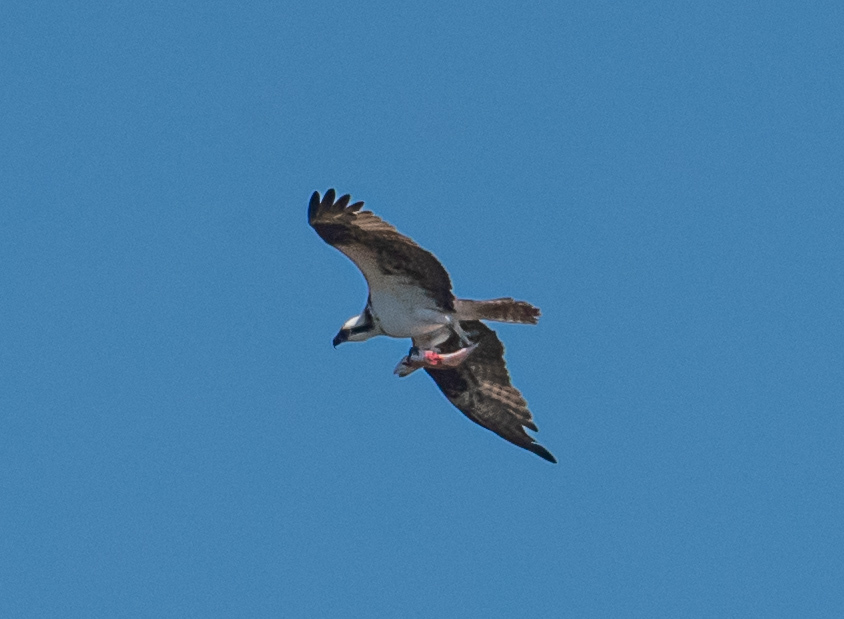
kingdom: Animalia
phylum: Chordata
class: Aves
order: Accipitriformes
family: Pandionidae
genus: Pandion
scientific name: Pandion haliaetus
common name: Osprey
